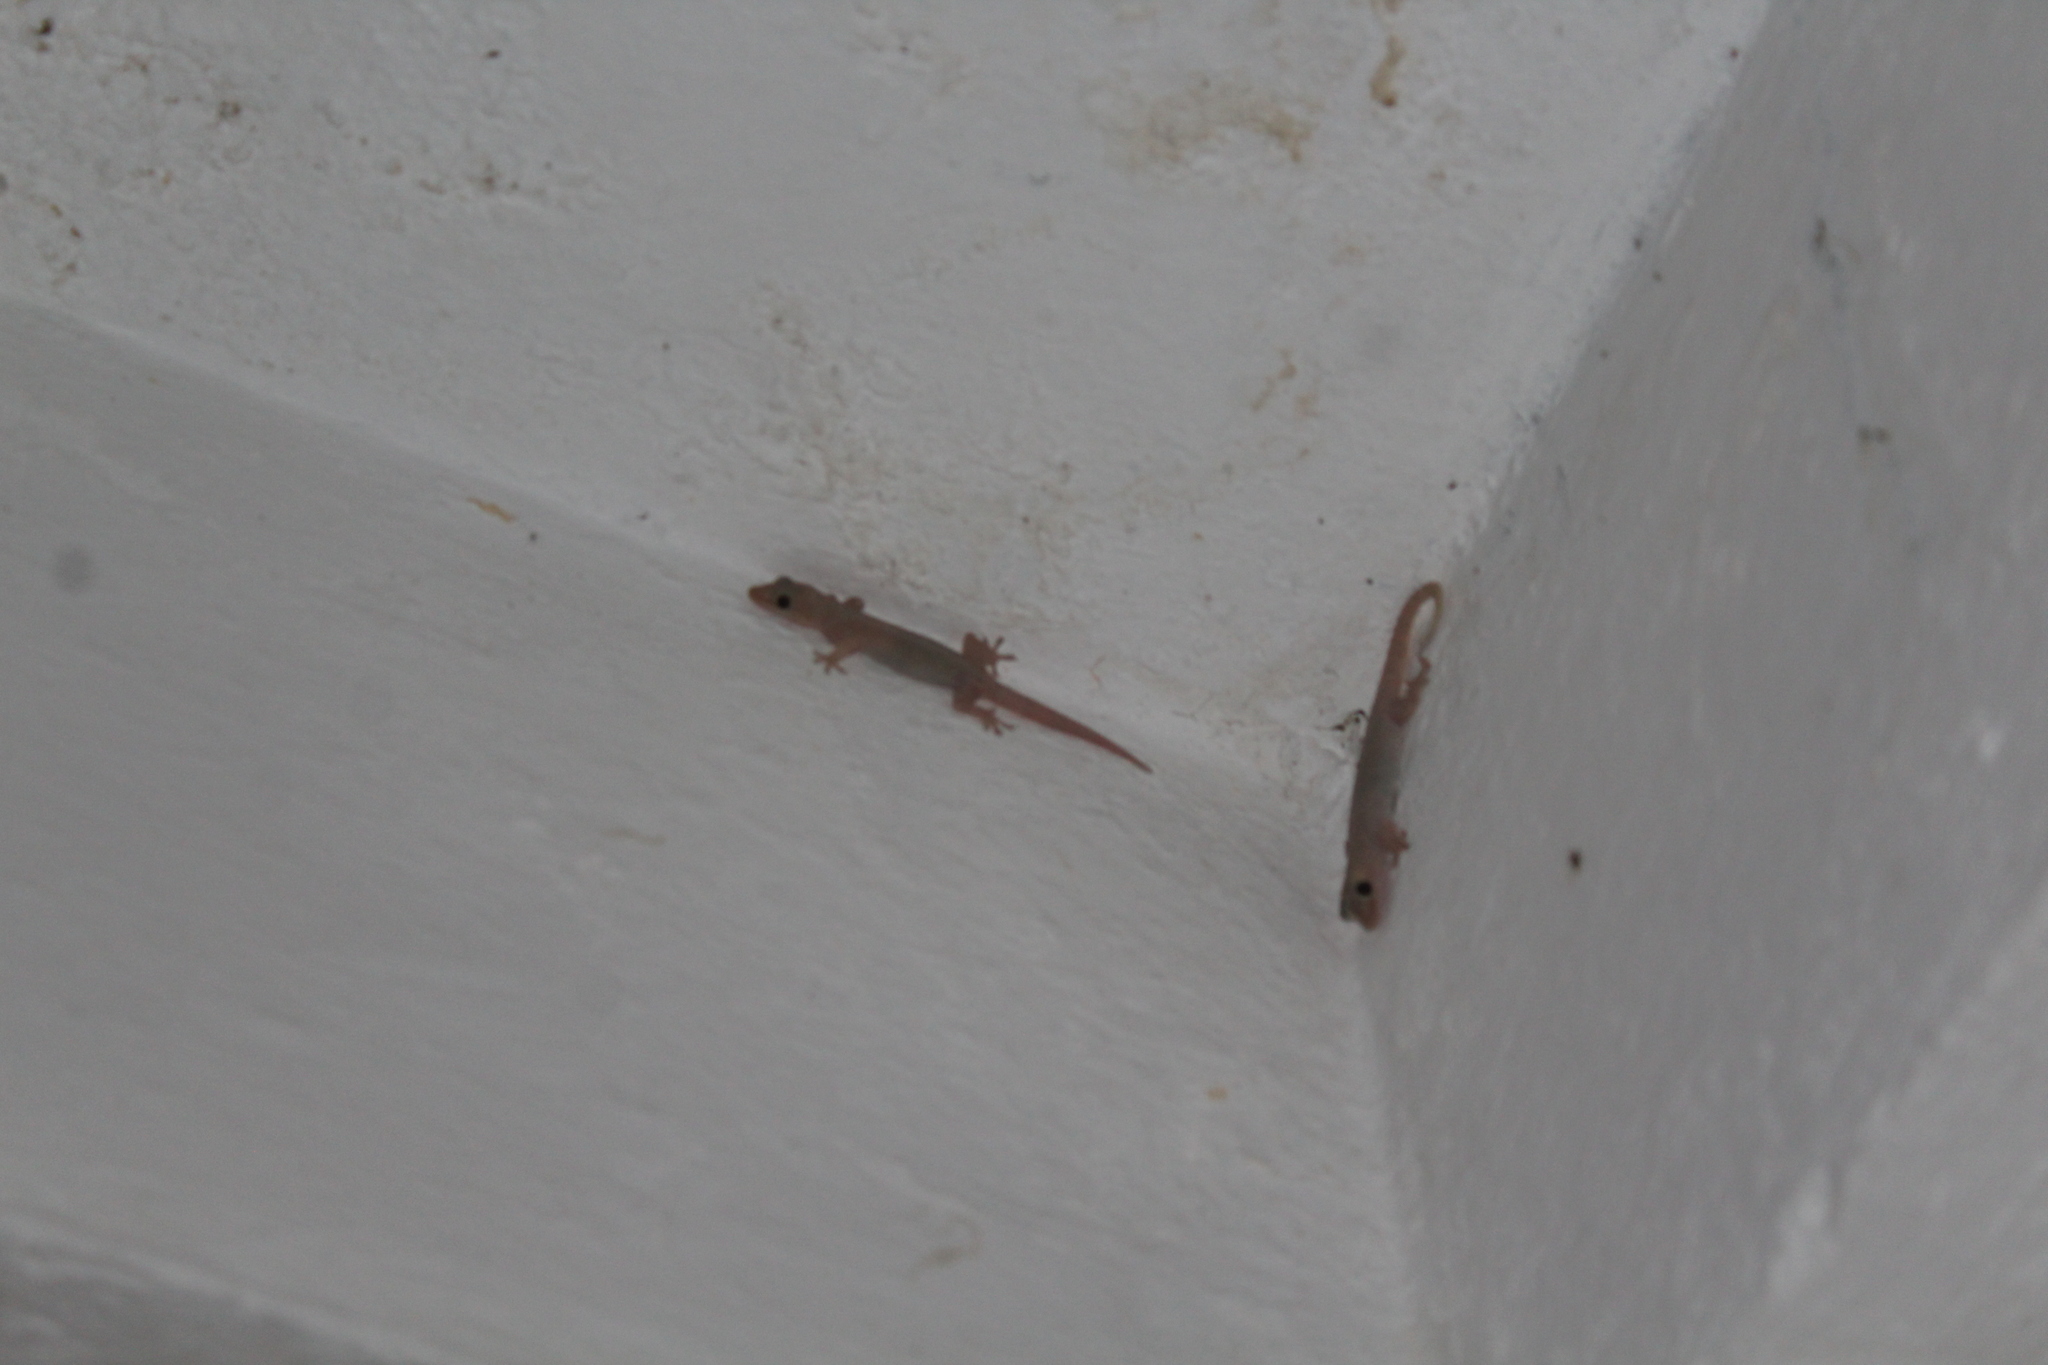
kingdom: Animalia
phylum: Chordata
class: Squamata
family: Gekkonidae
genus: Hemidactylus
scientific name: Hemidactylus frenatus
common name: Common house gecko
